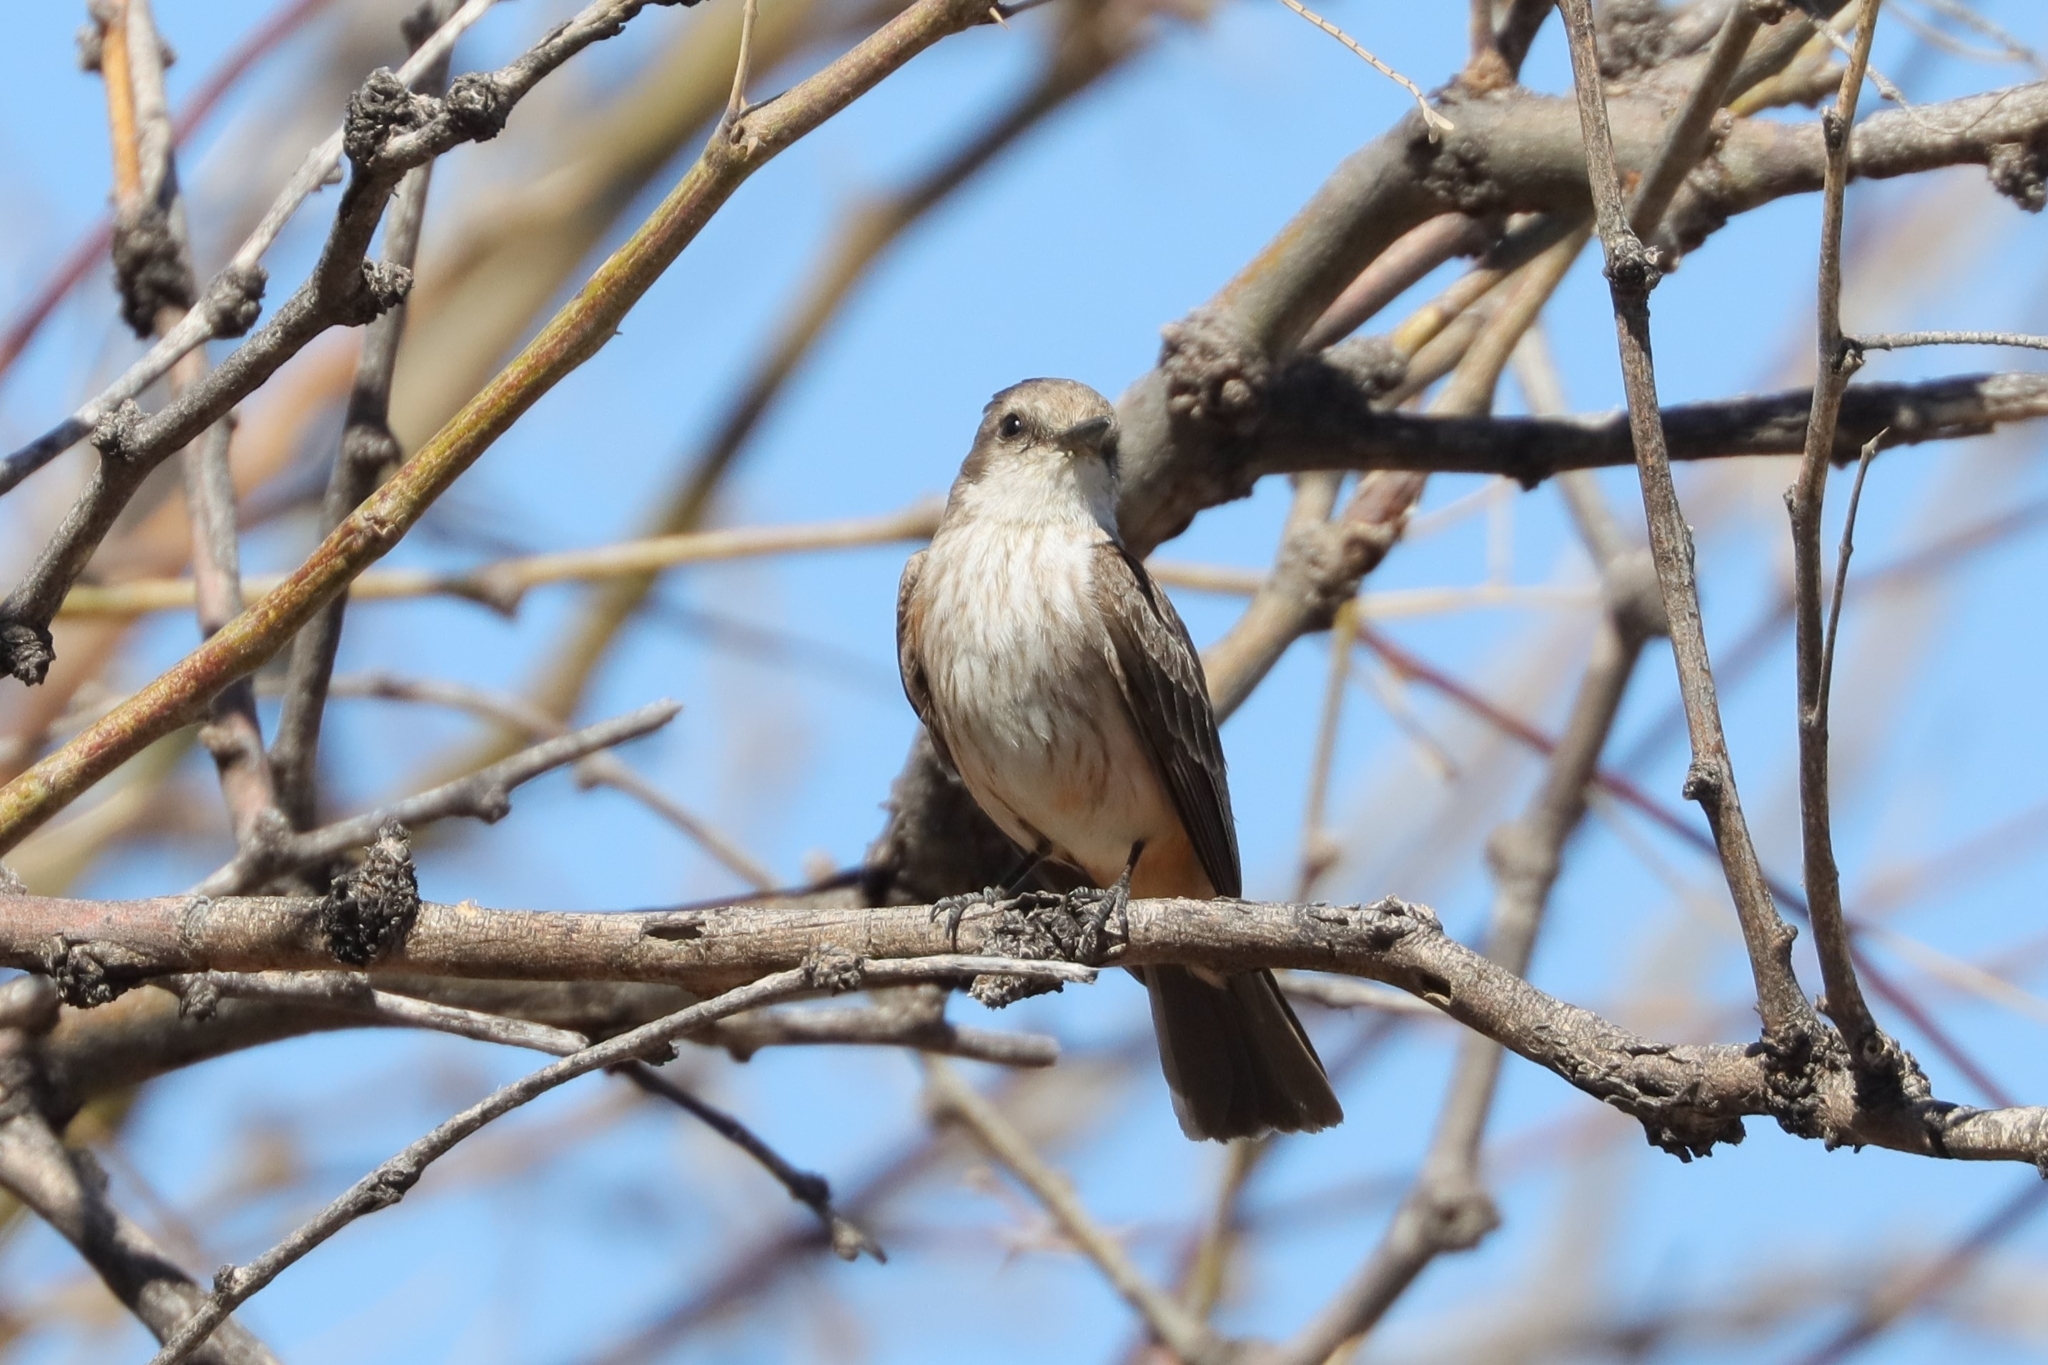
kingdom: Animalia
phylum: Chordata
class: Aves
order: Passeriformes
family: Tyrannidae
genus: Pyrocephalus
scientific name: Pyrocephalus rubinus
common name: Vermilion flycatcher
